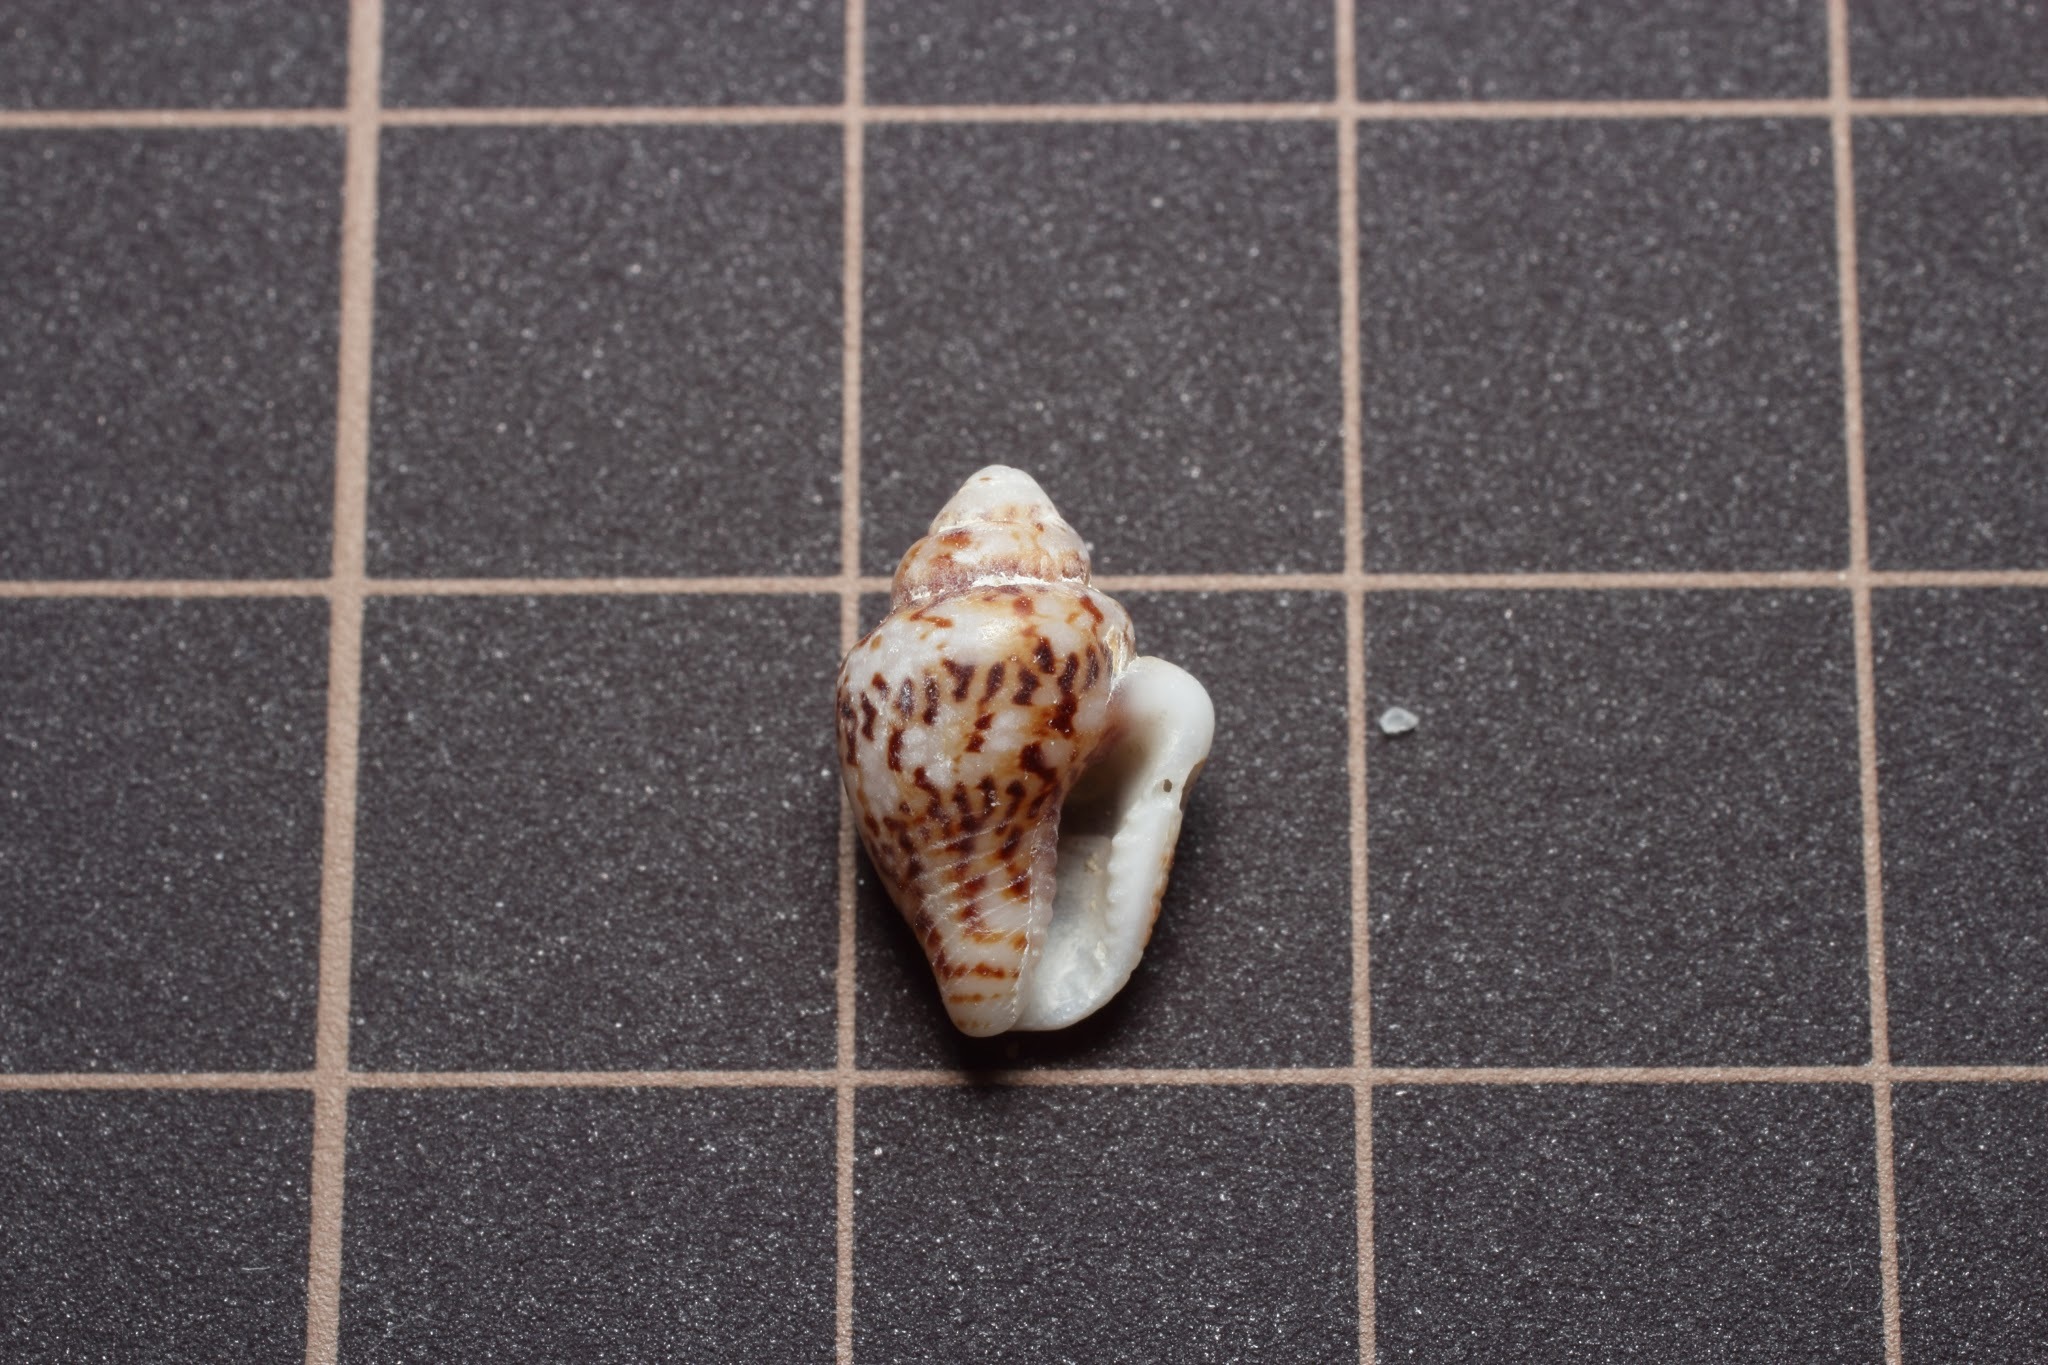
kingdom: Animalia
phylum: Mollusca
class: Gastropoda
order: Neogastropoda
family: Columbellidae
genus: Euplica
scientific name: Euplica scripta
